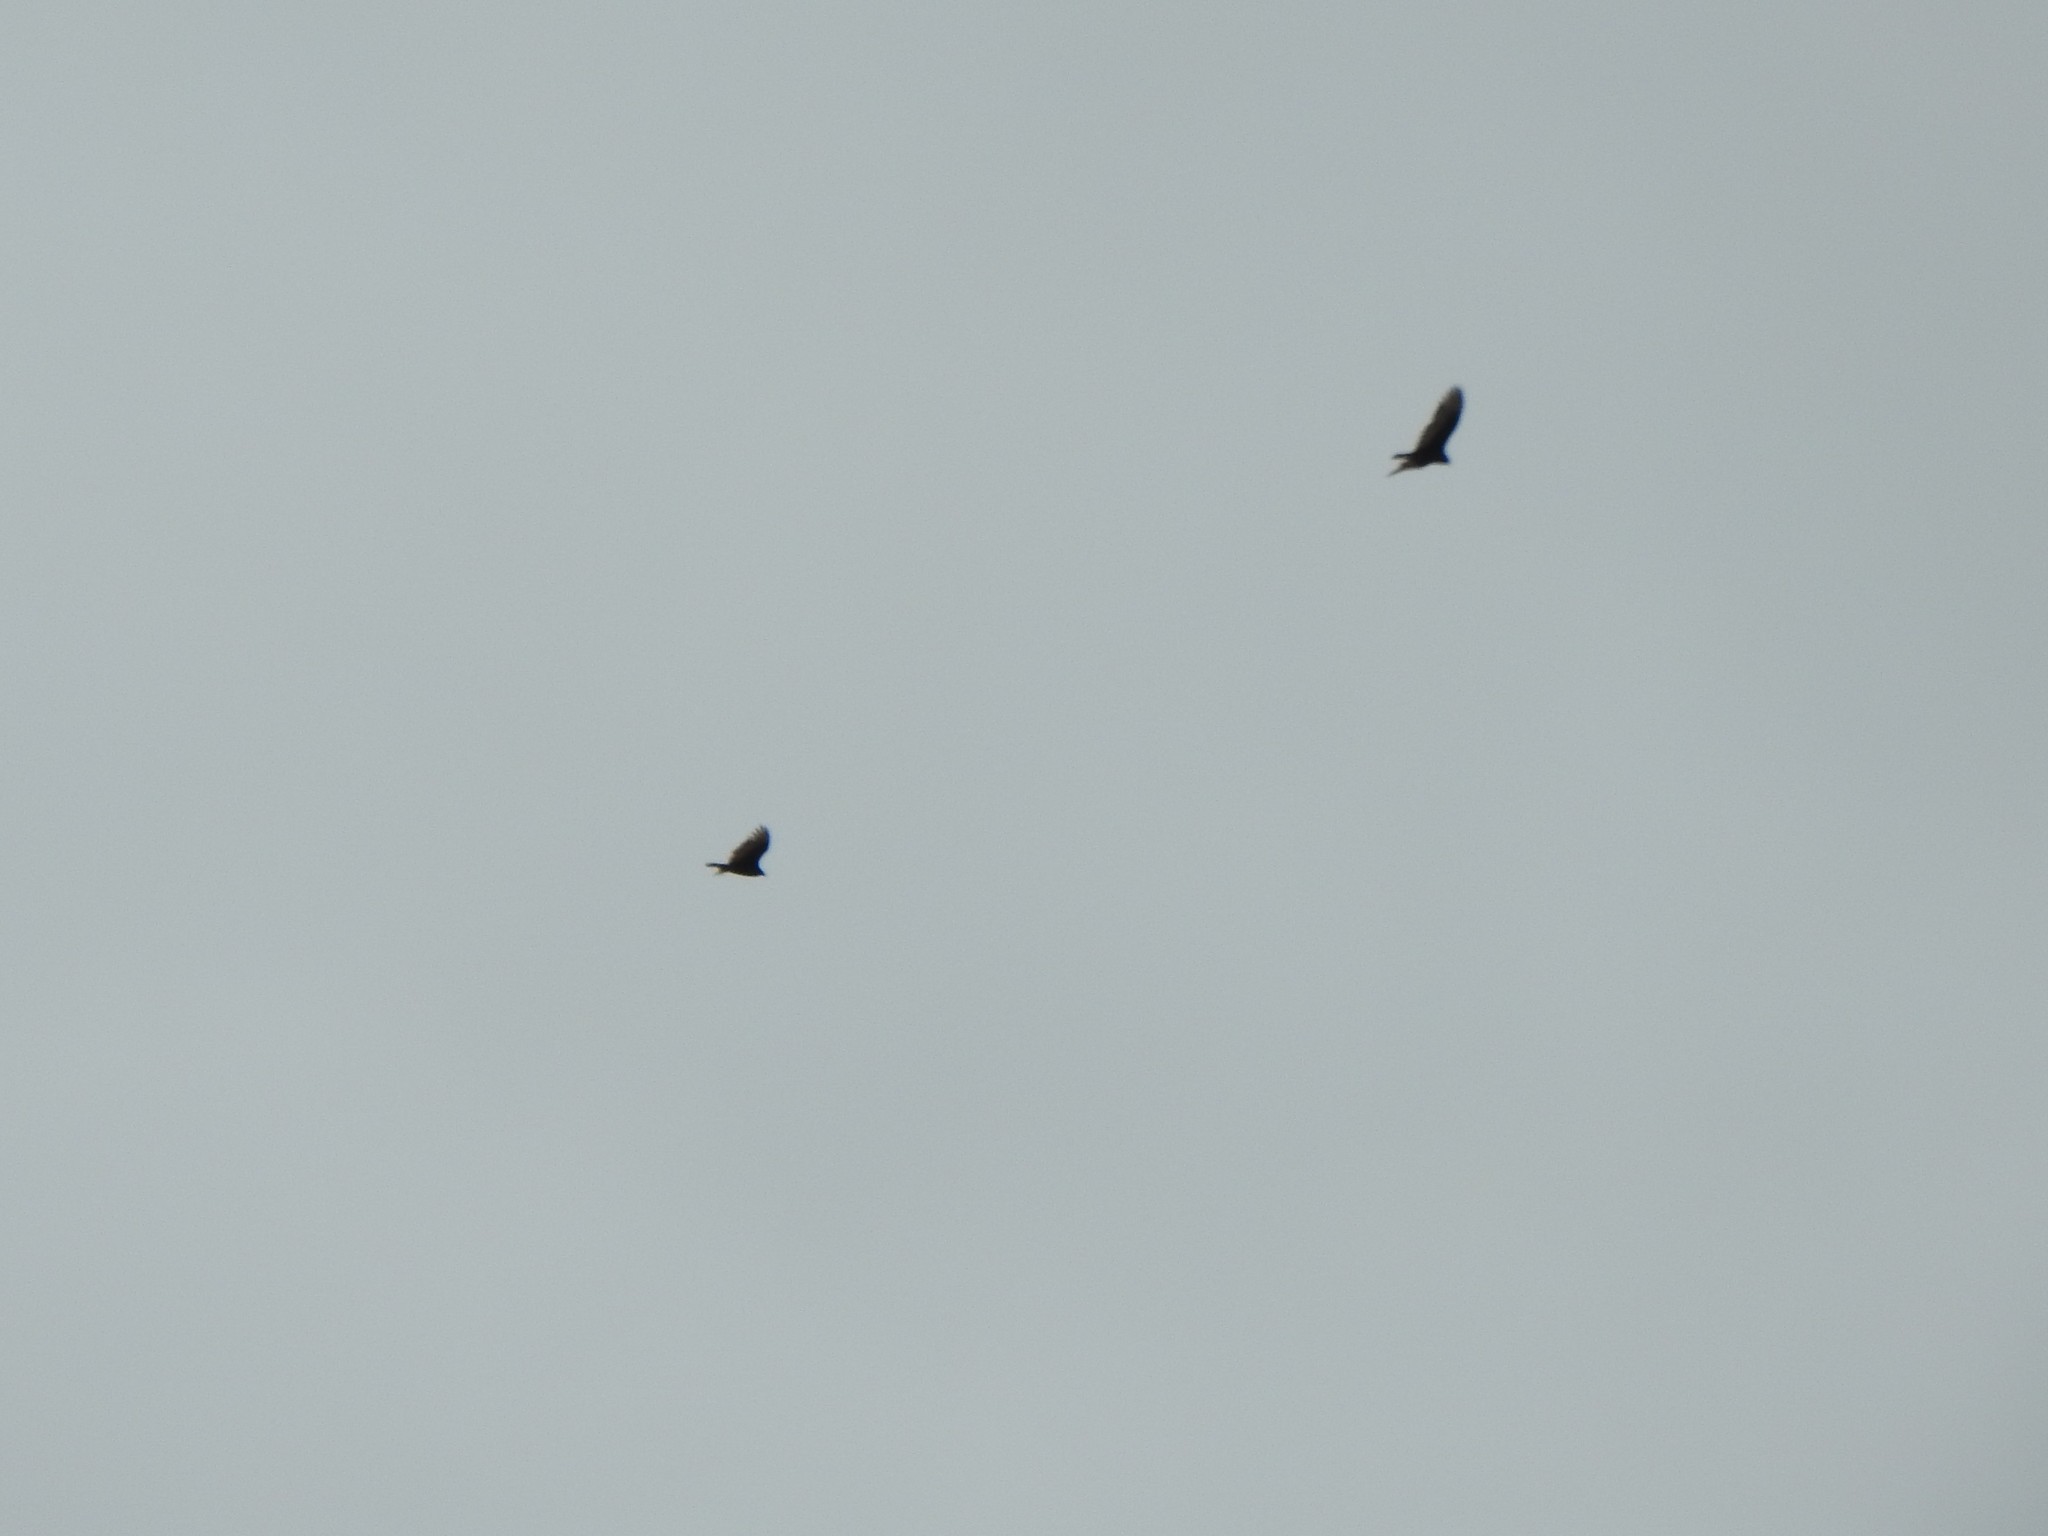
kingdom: Animalia
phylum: Chordata
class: Aves
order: Accipitriformes
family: Cathartidae
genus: Cathartes
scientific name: Cathartes aura
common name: Turkey vulture
